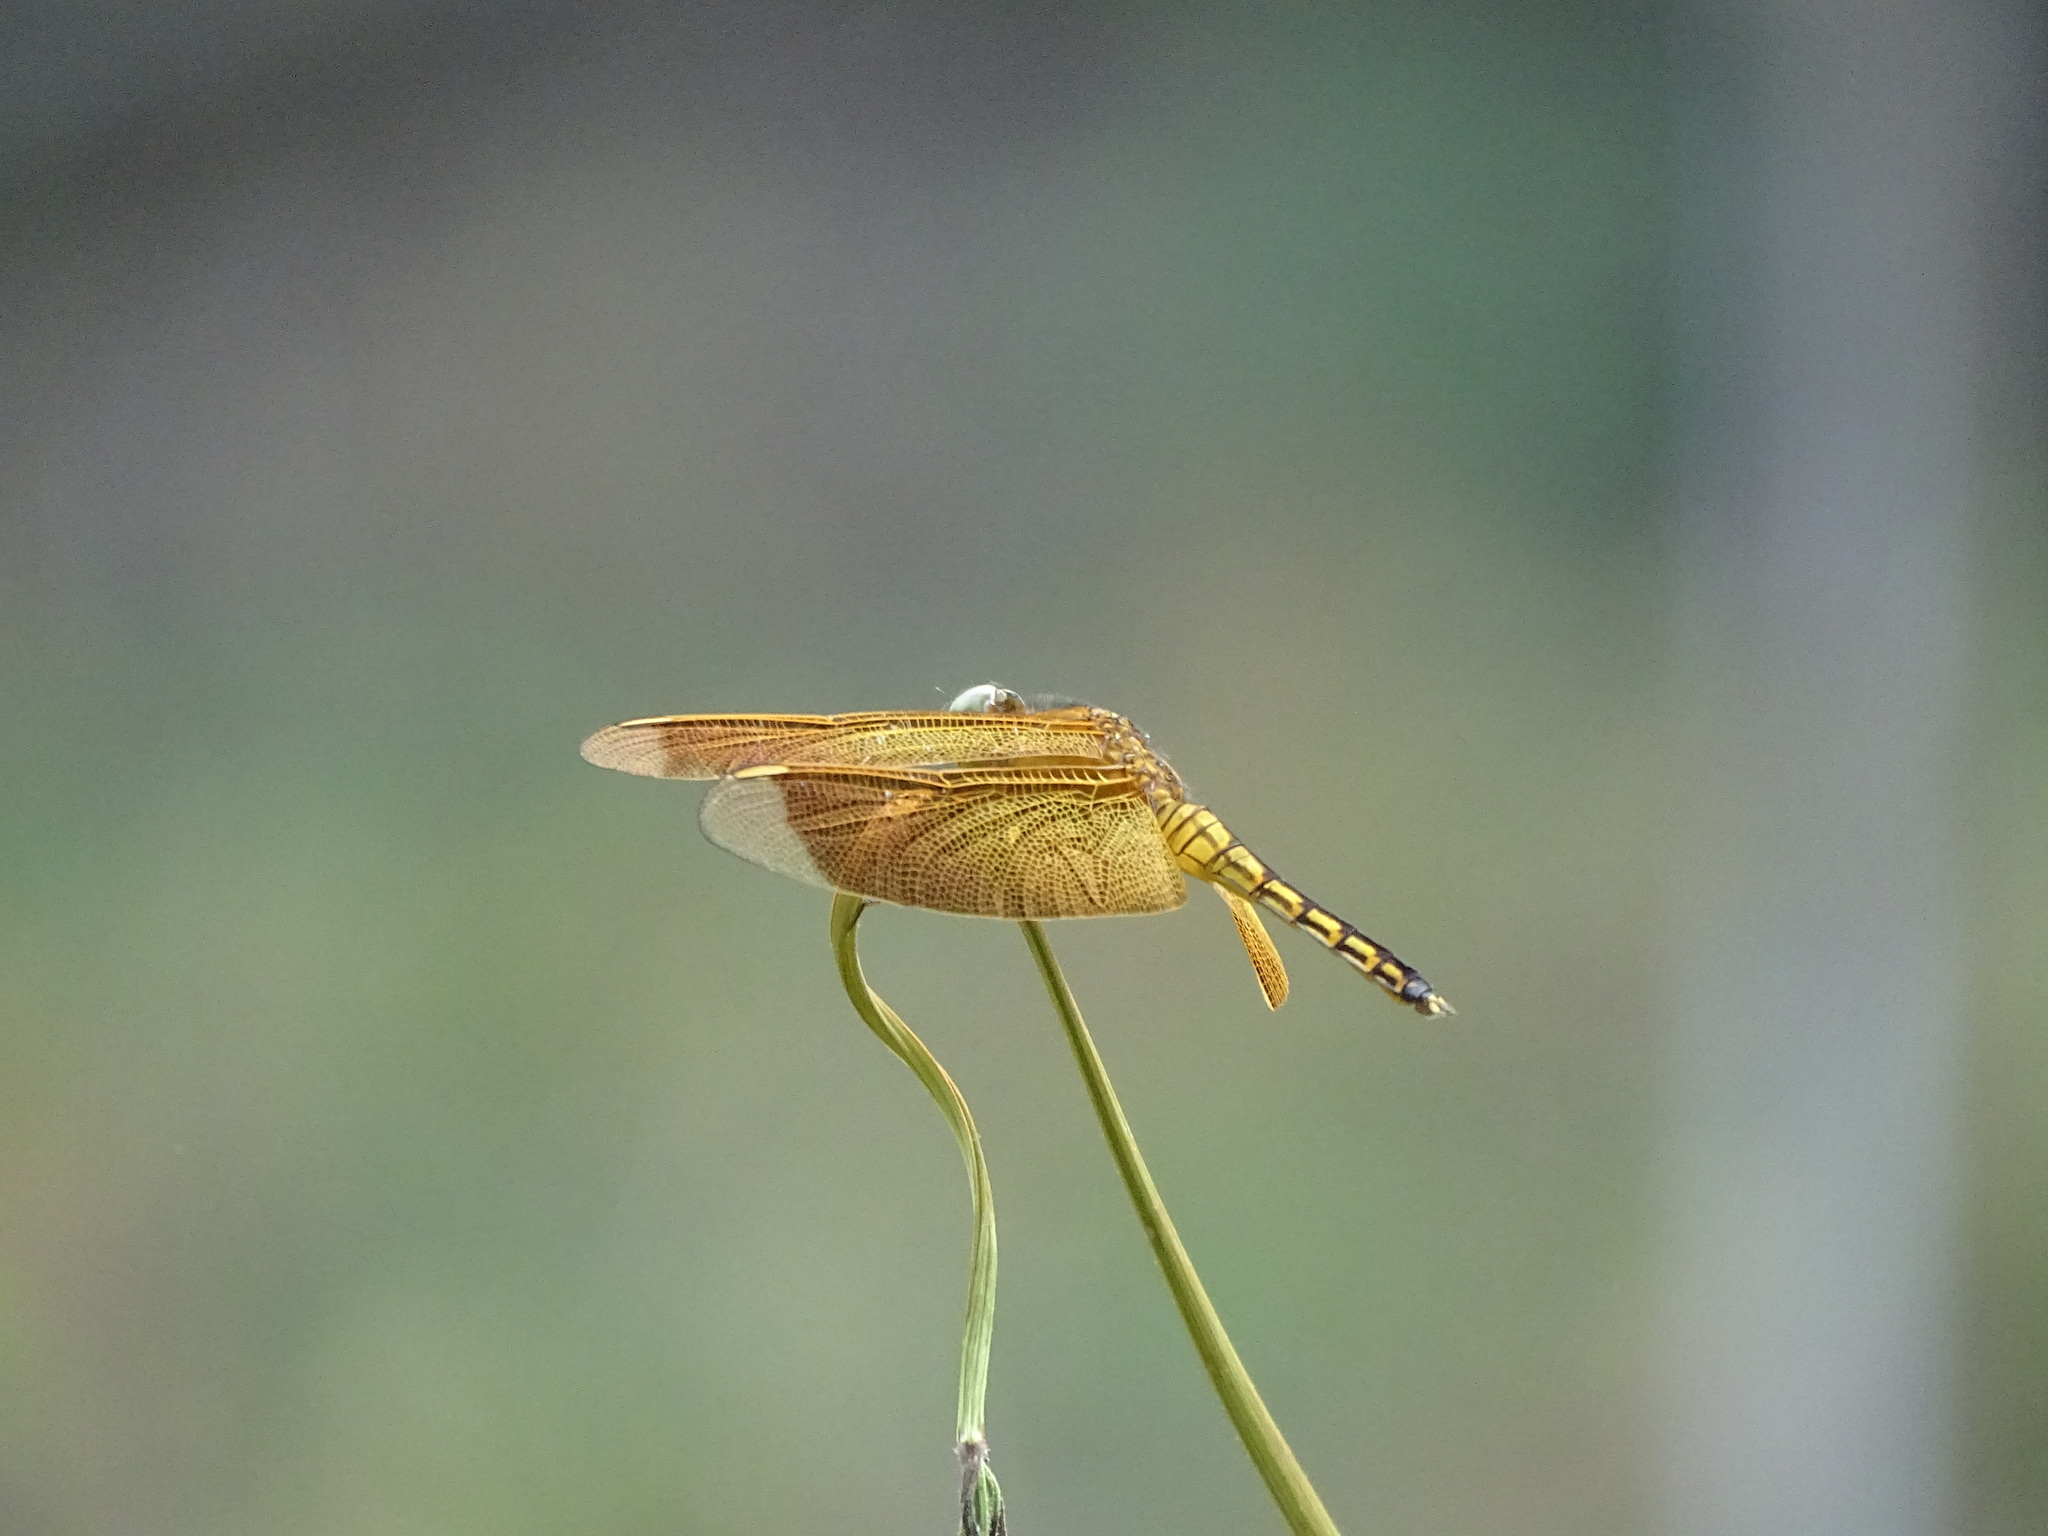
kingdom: Animalia
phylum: Arthropoda
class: Insecta
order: Odonata
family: Libellulidae
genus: Neurothemis
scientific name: Neurothemis taiwanensis
